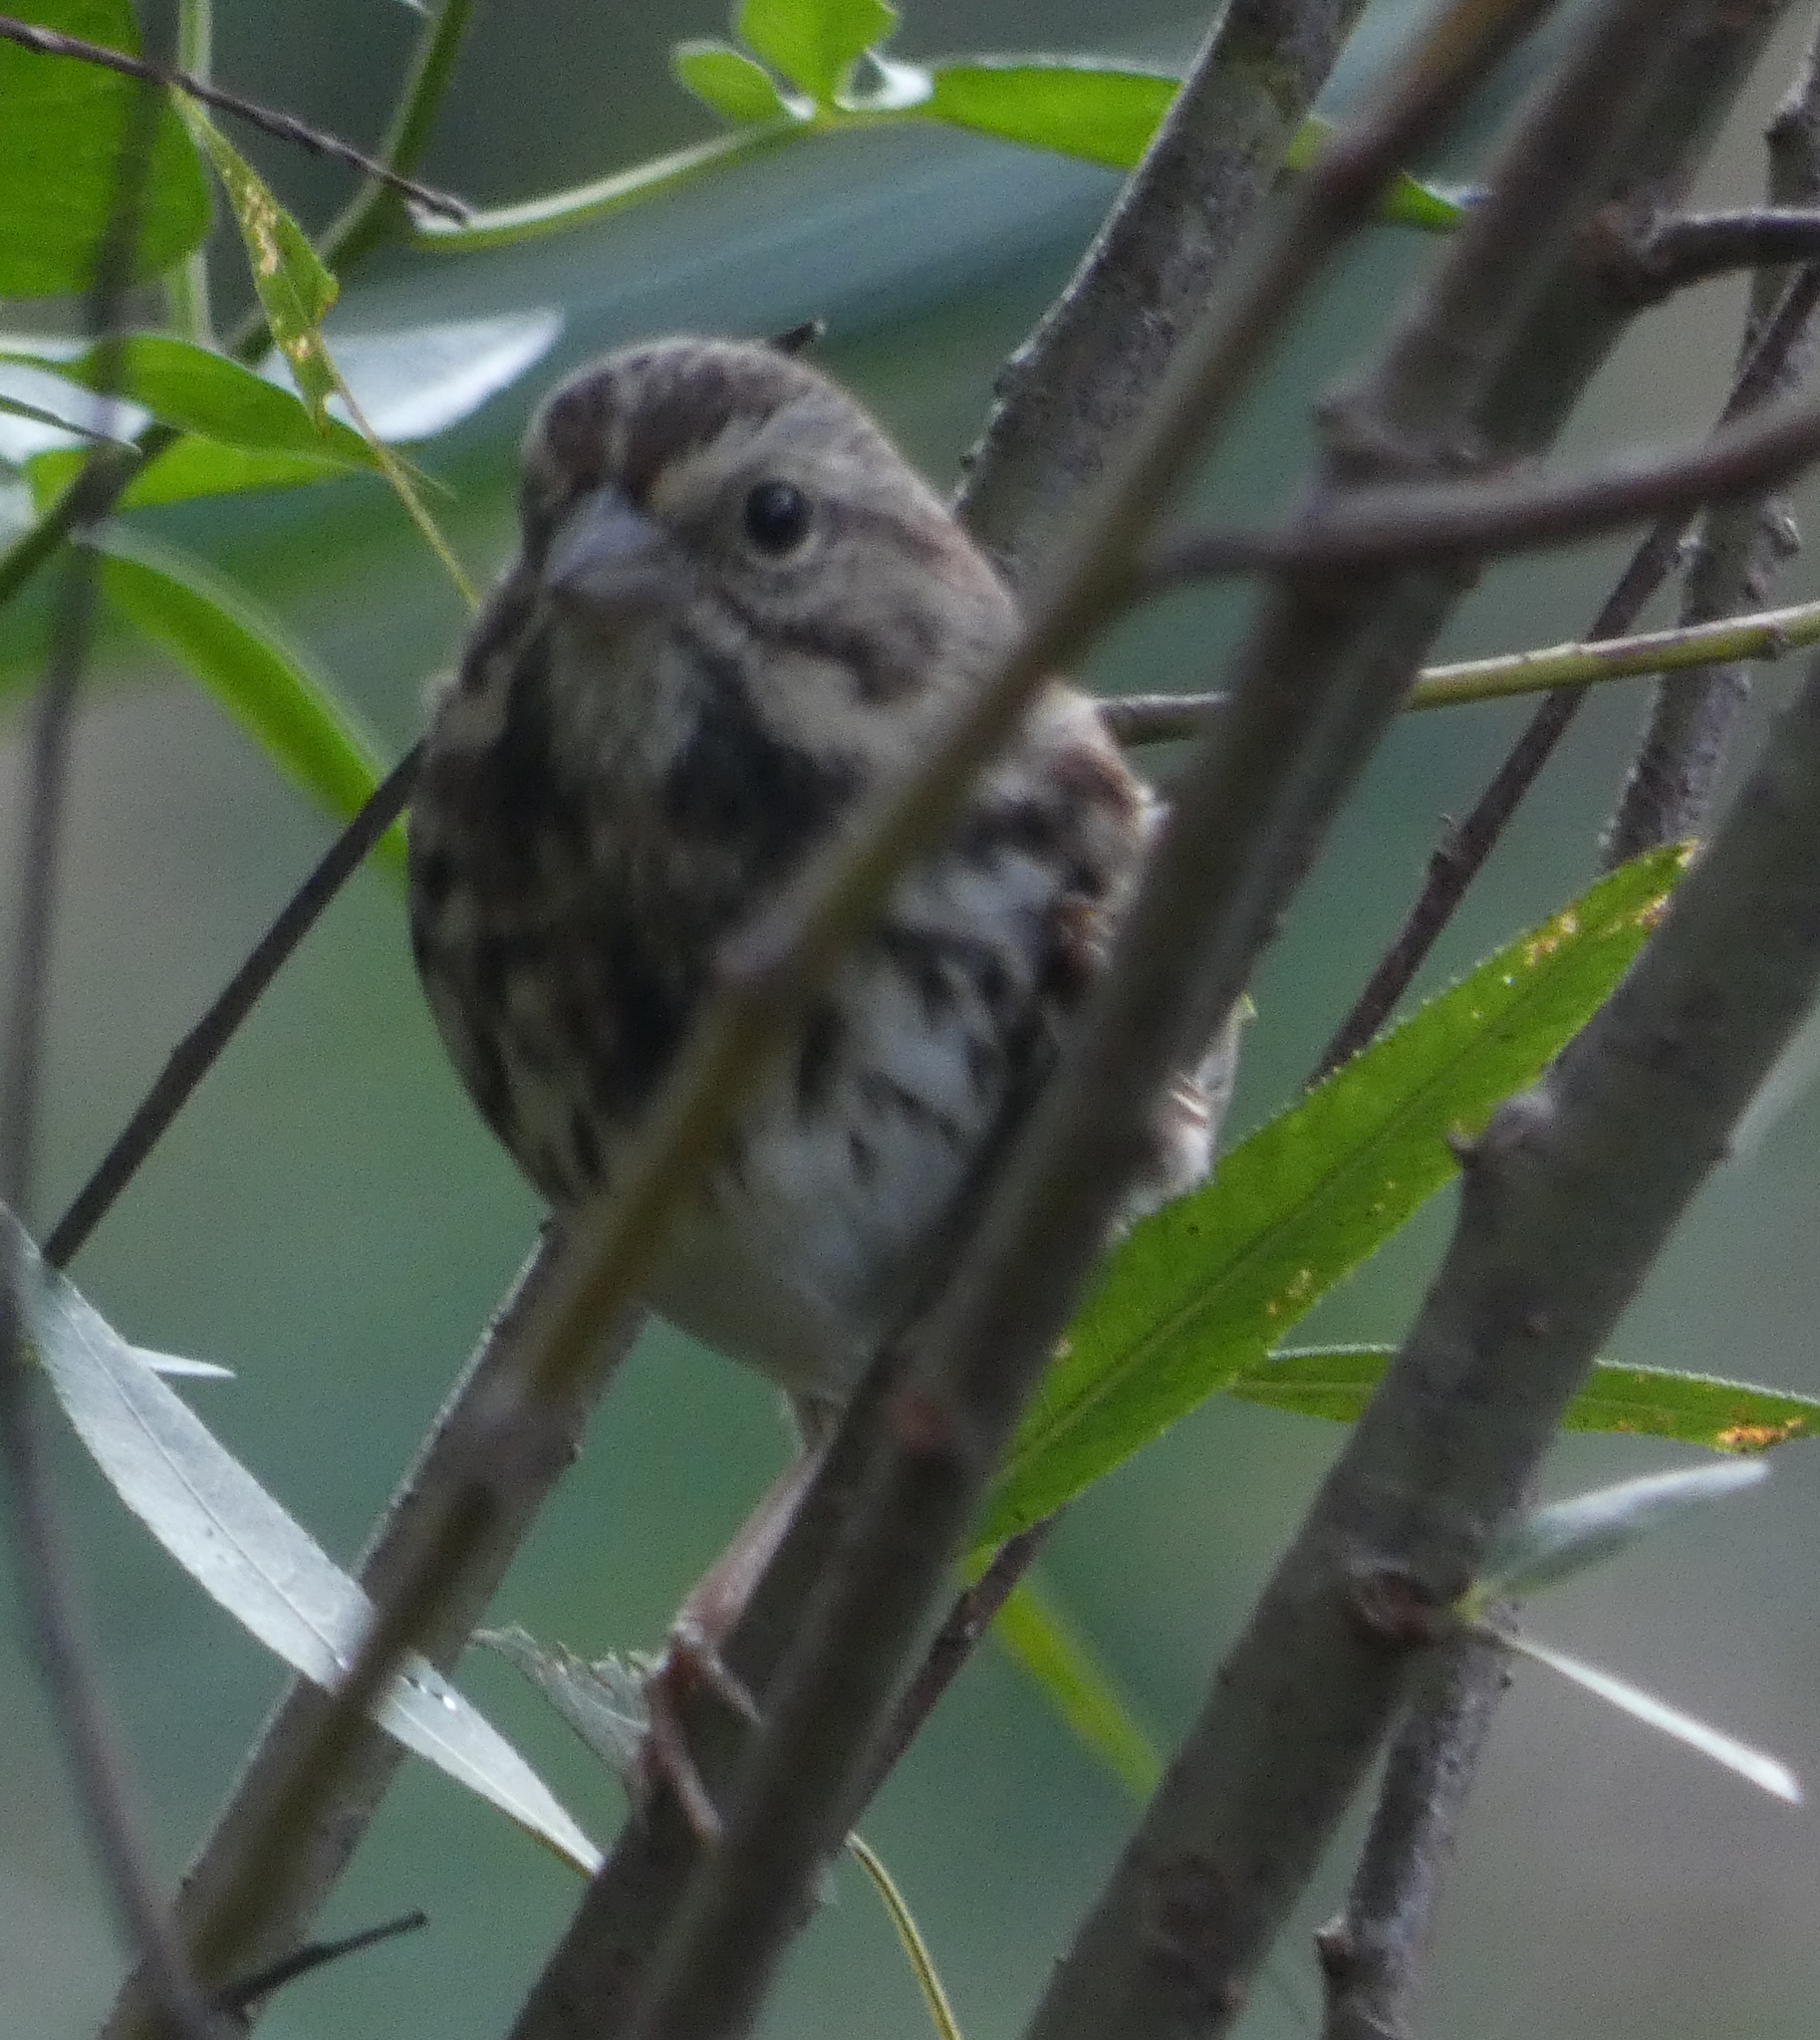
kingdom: Animalia
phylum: Chordata
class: Aves
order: Passeriformes
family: Passerellidae
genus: Melospiza
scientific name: Melospiza melodia
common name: Song sparrow
